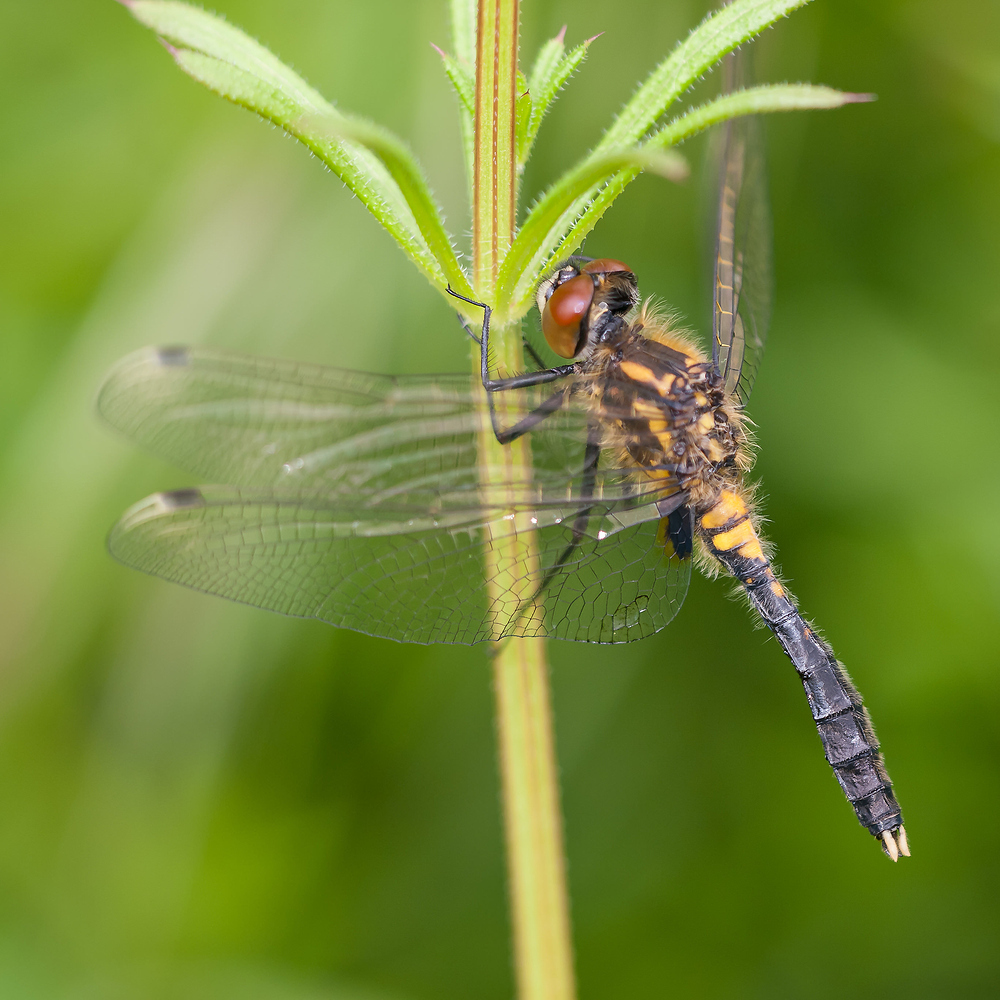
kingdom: Animalia
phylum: Arthropoda
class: Insecta
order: Odonata
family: Libellulidae
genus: Leucorrhinia
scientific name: Leucorrhinia caudalis
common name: Lilypad whiteface
